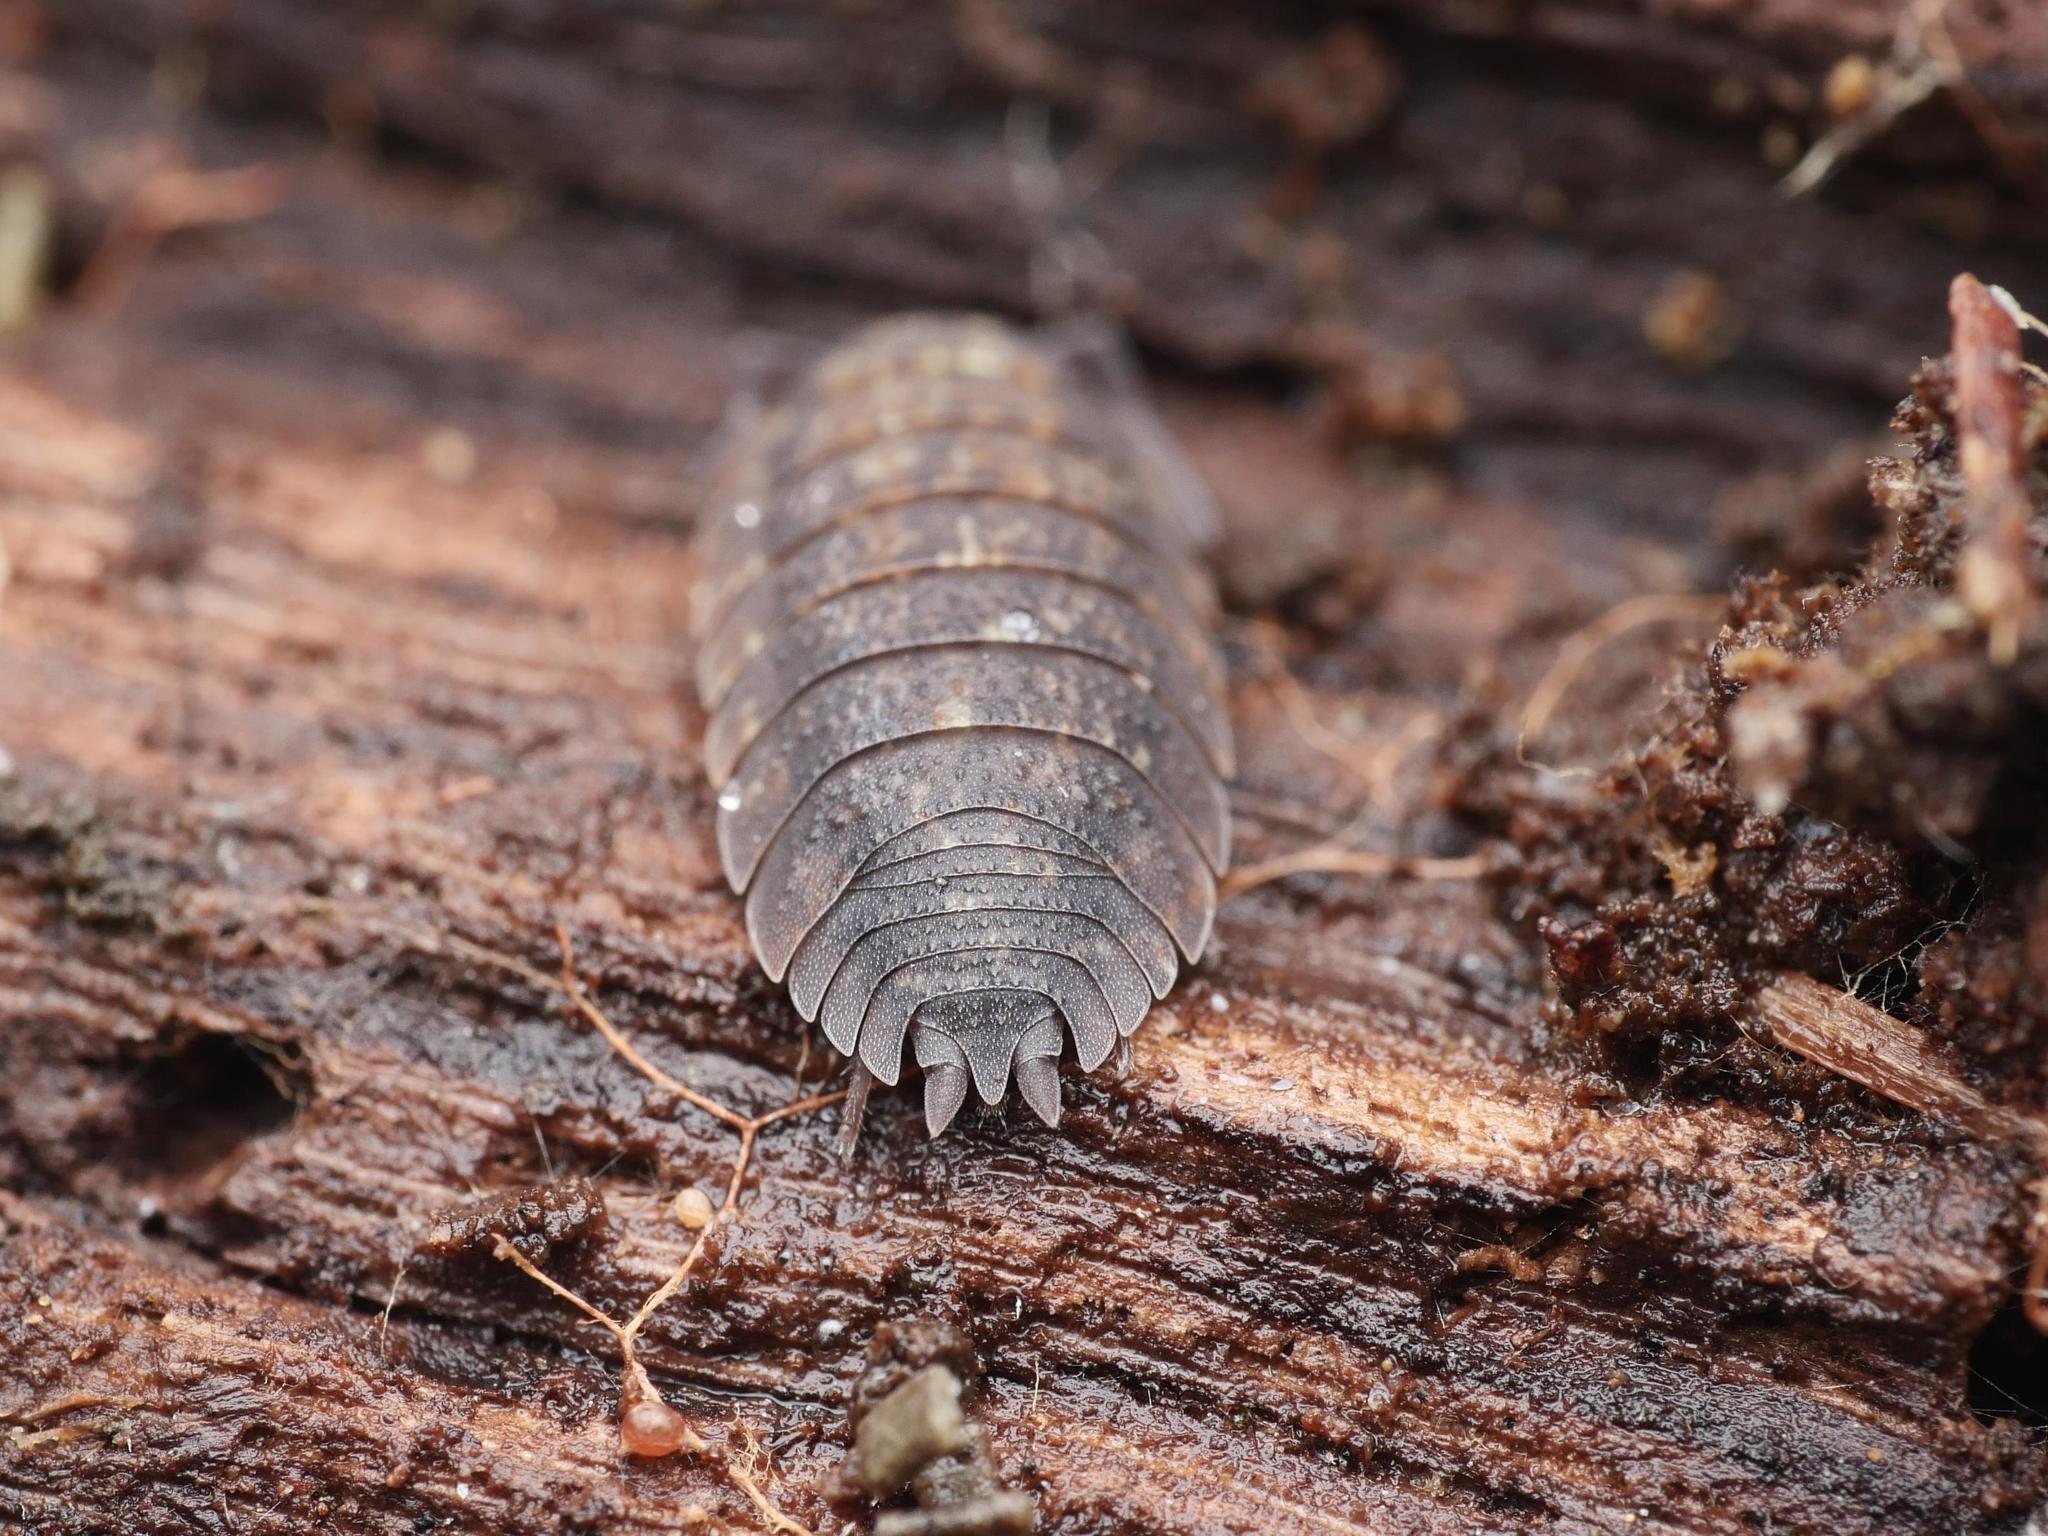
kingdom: Animalia
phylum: Arthropoda
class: Malacostraca
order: Isopoda
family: Porcellionidae
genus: Porcellio
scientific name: Porcellio scaber
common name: Common rough woodlouse
